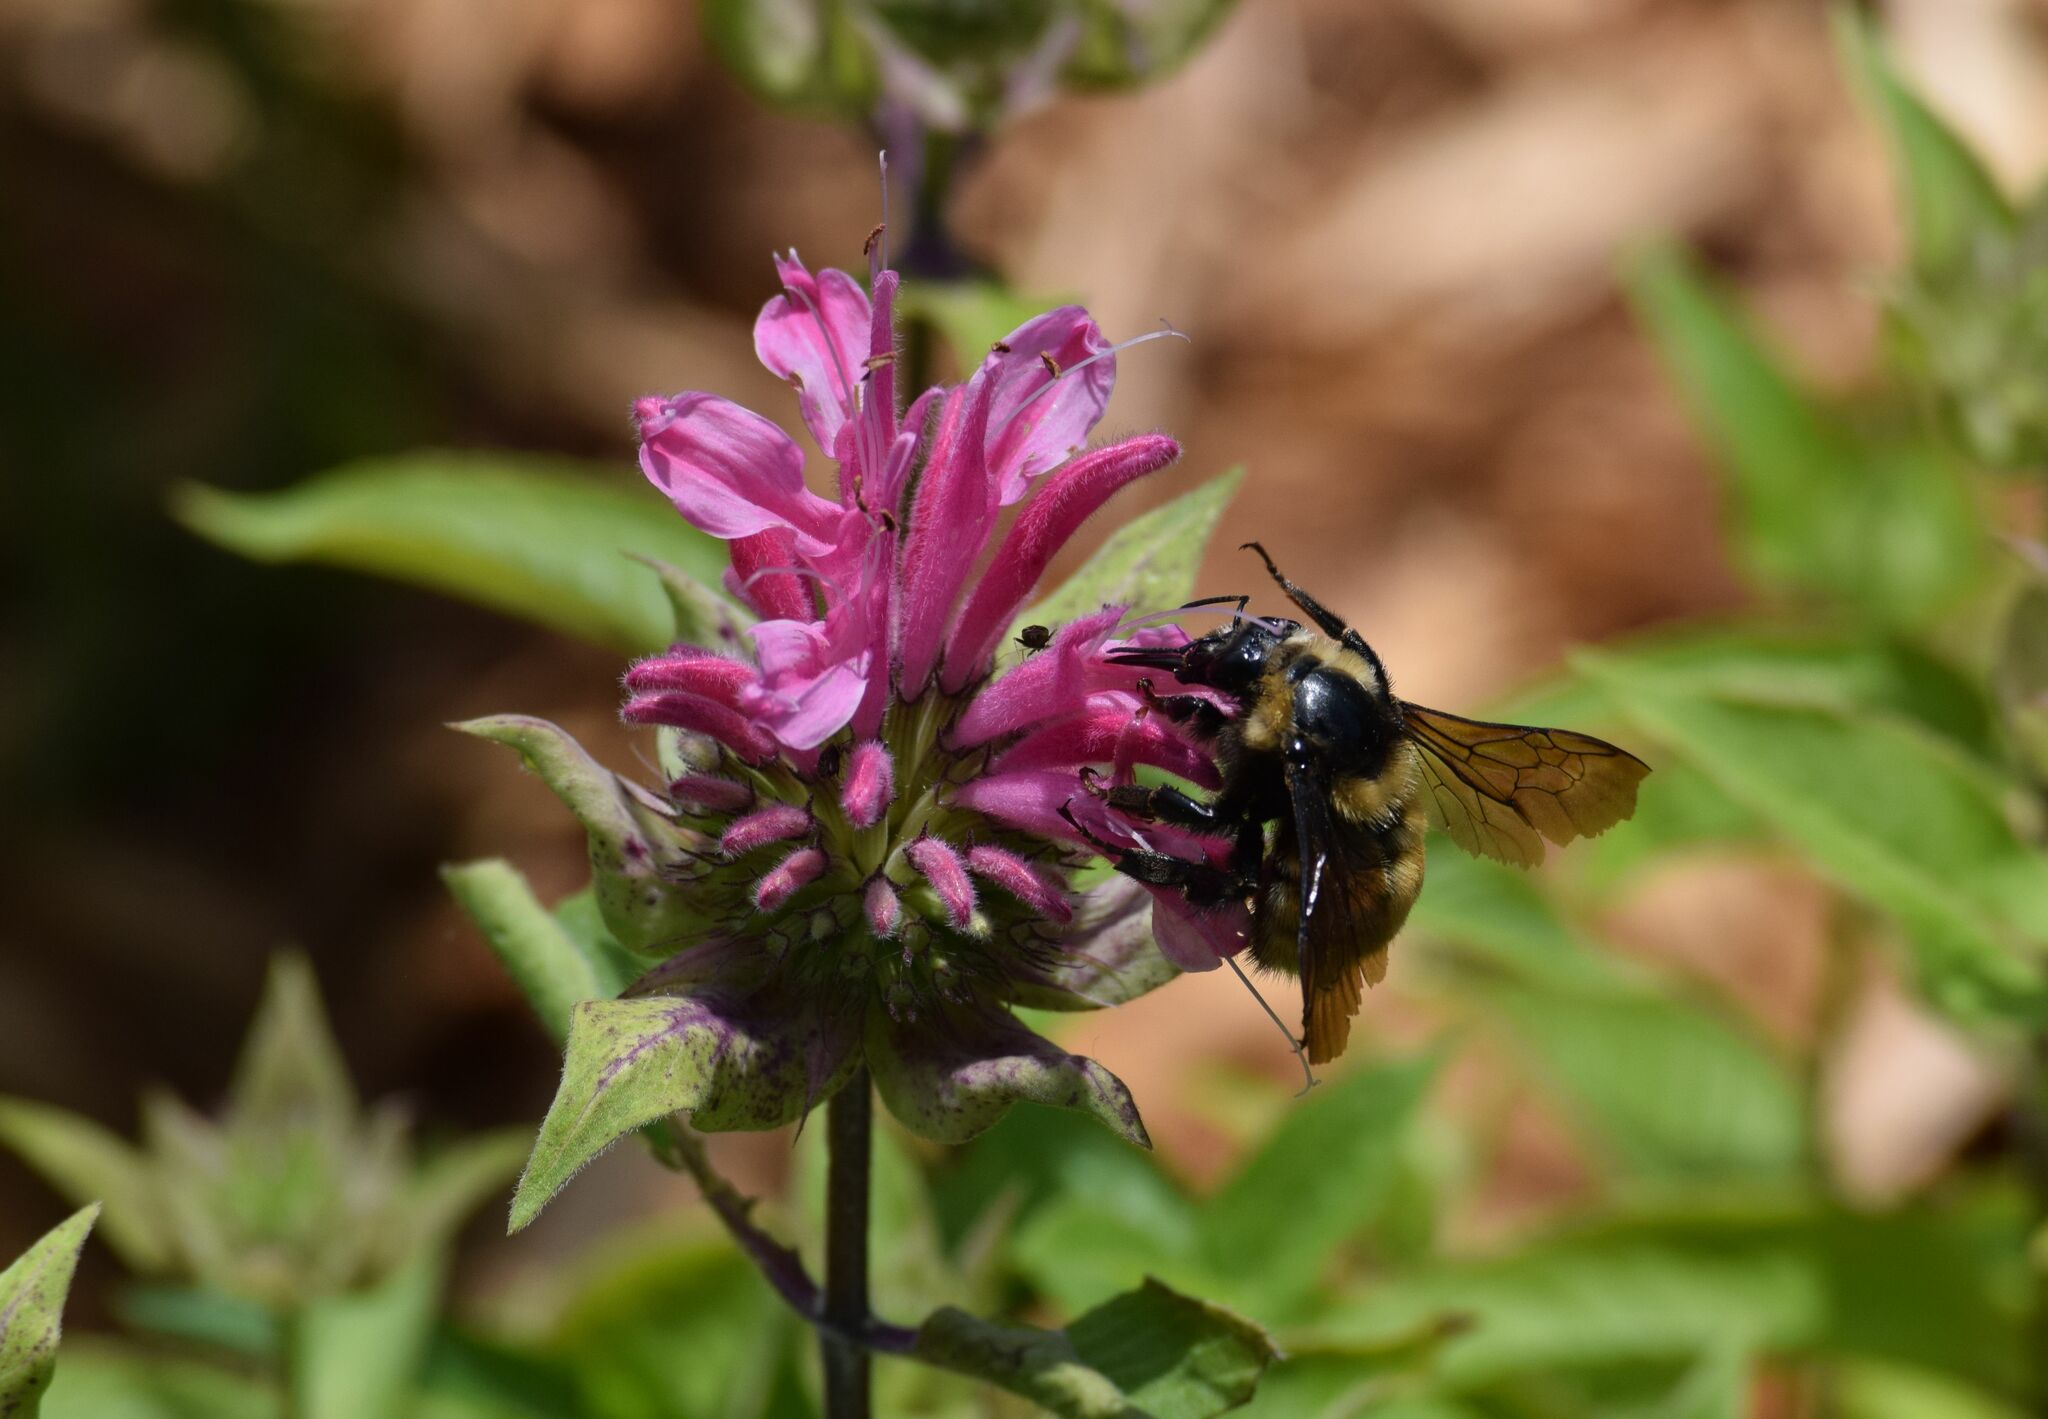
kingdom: Animalia
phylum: Arthropoda
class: Insecta
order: Hymenoptera
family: Apidae
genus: Bombus
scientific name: Bombus borealis
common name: Northern amber bumble bee
